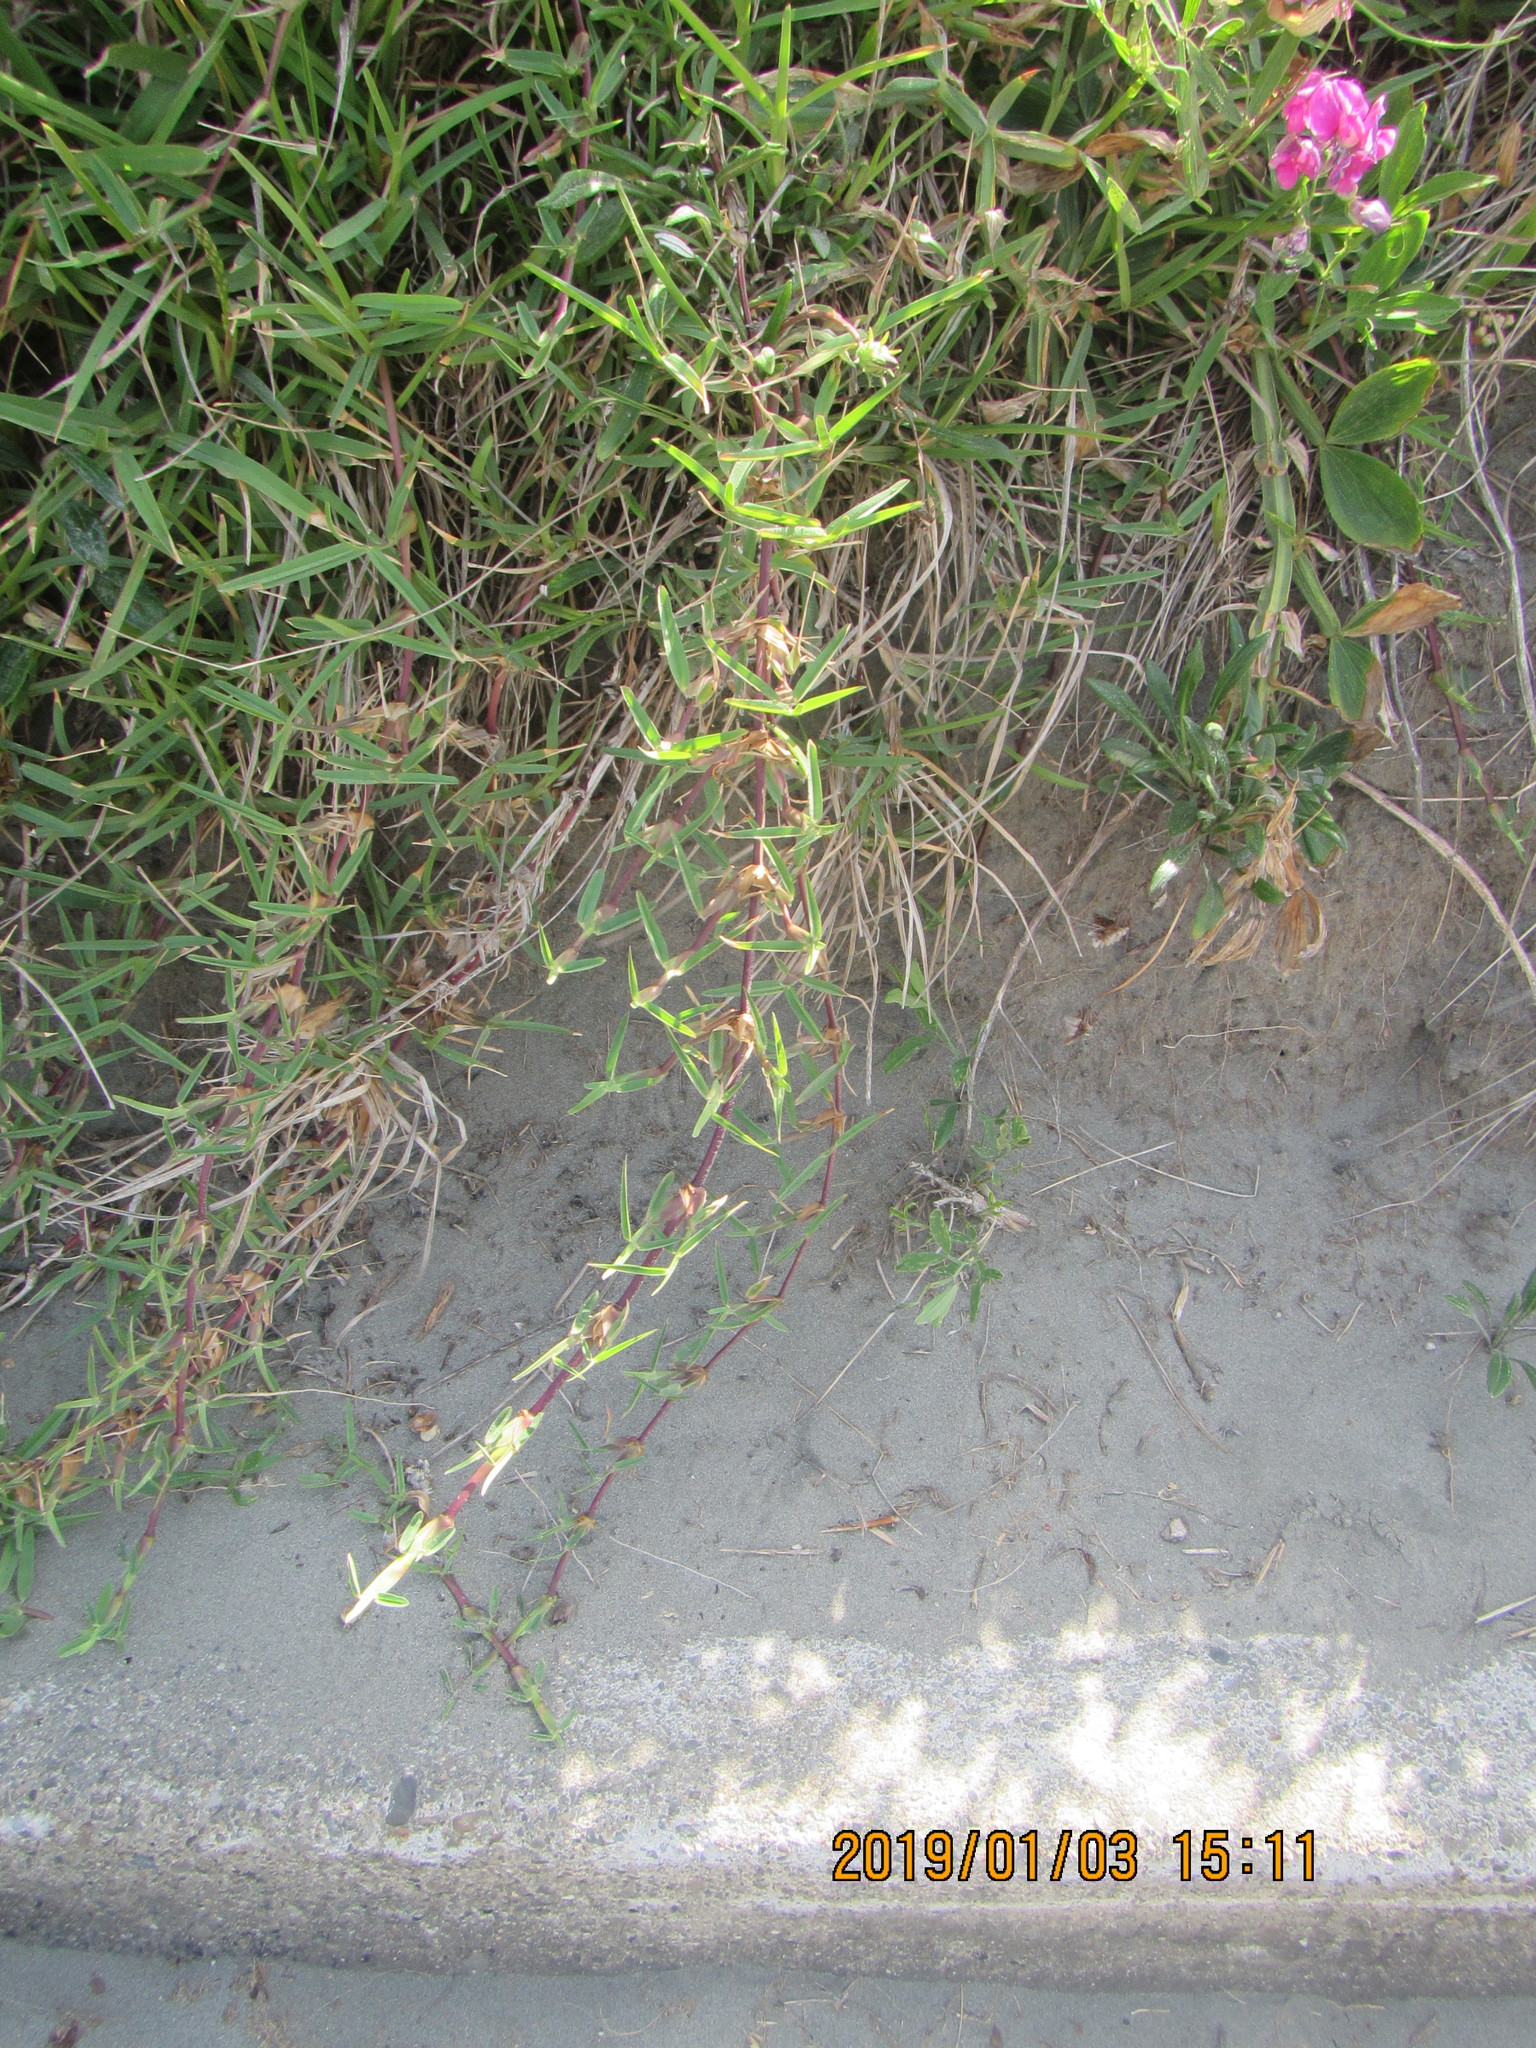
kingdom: Plantae
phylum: Tracheophyta
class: Liliopsida
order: Poales
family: Poaceae
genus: Stenotaphrum
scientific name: Stenotaphrum secundatum
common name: St. augustine grass
